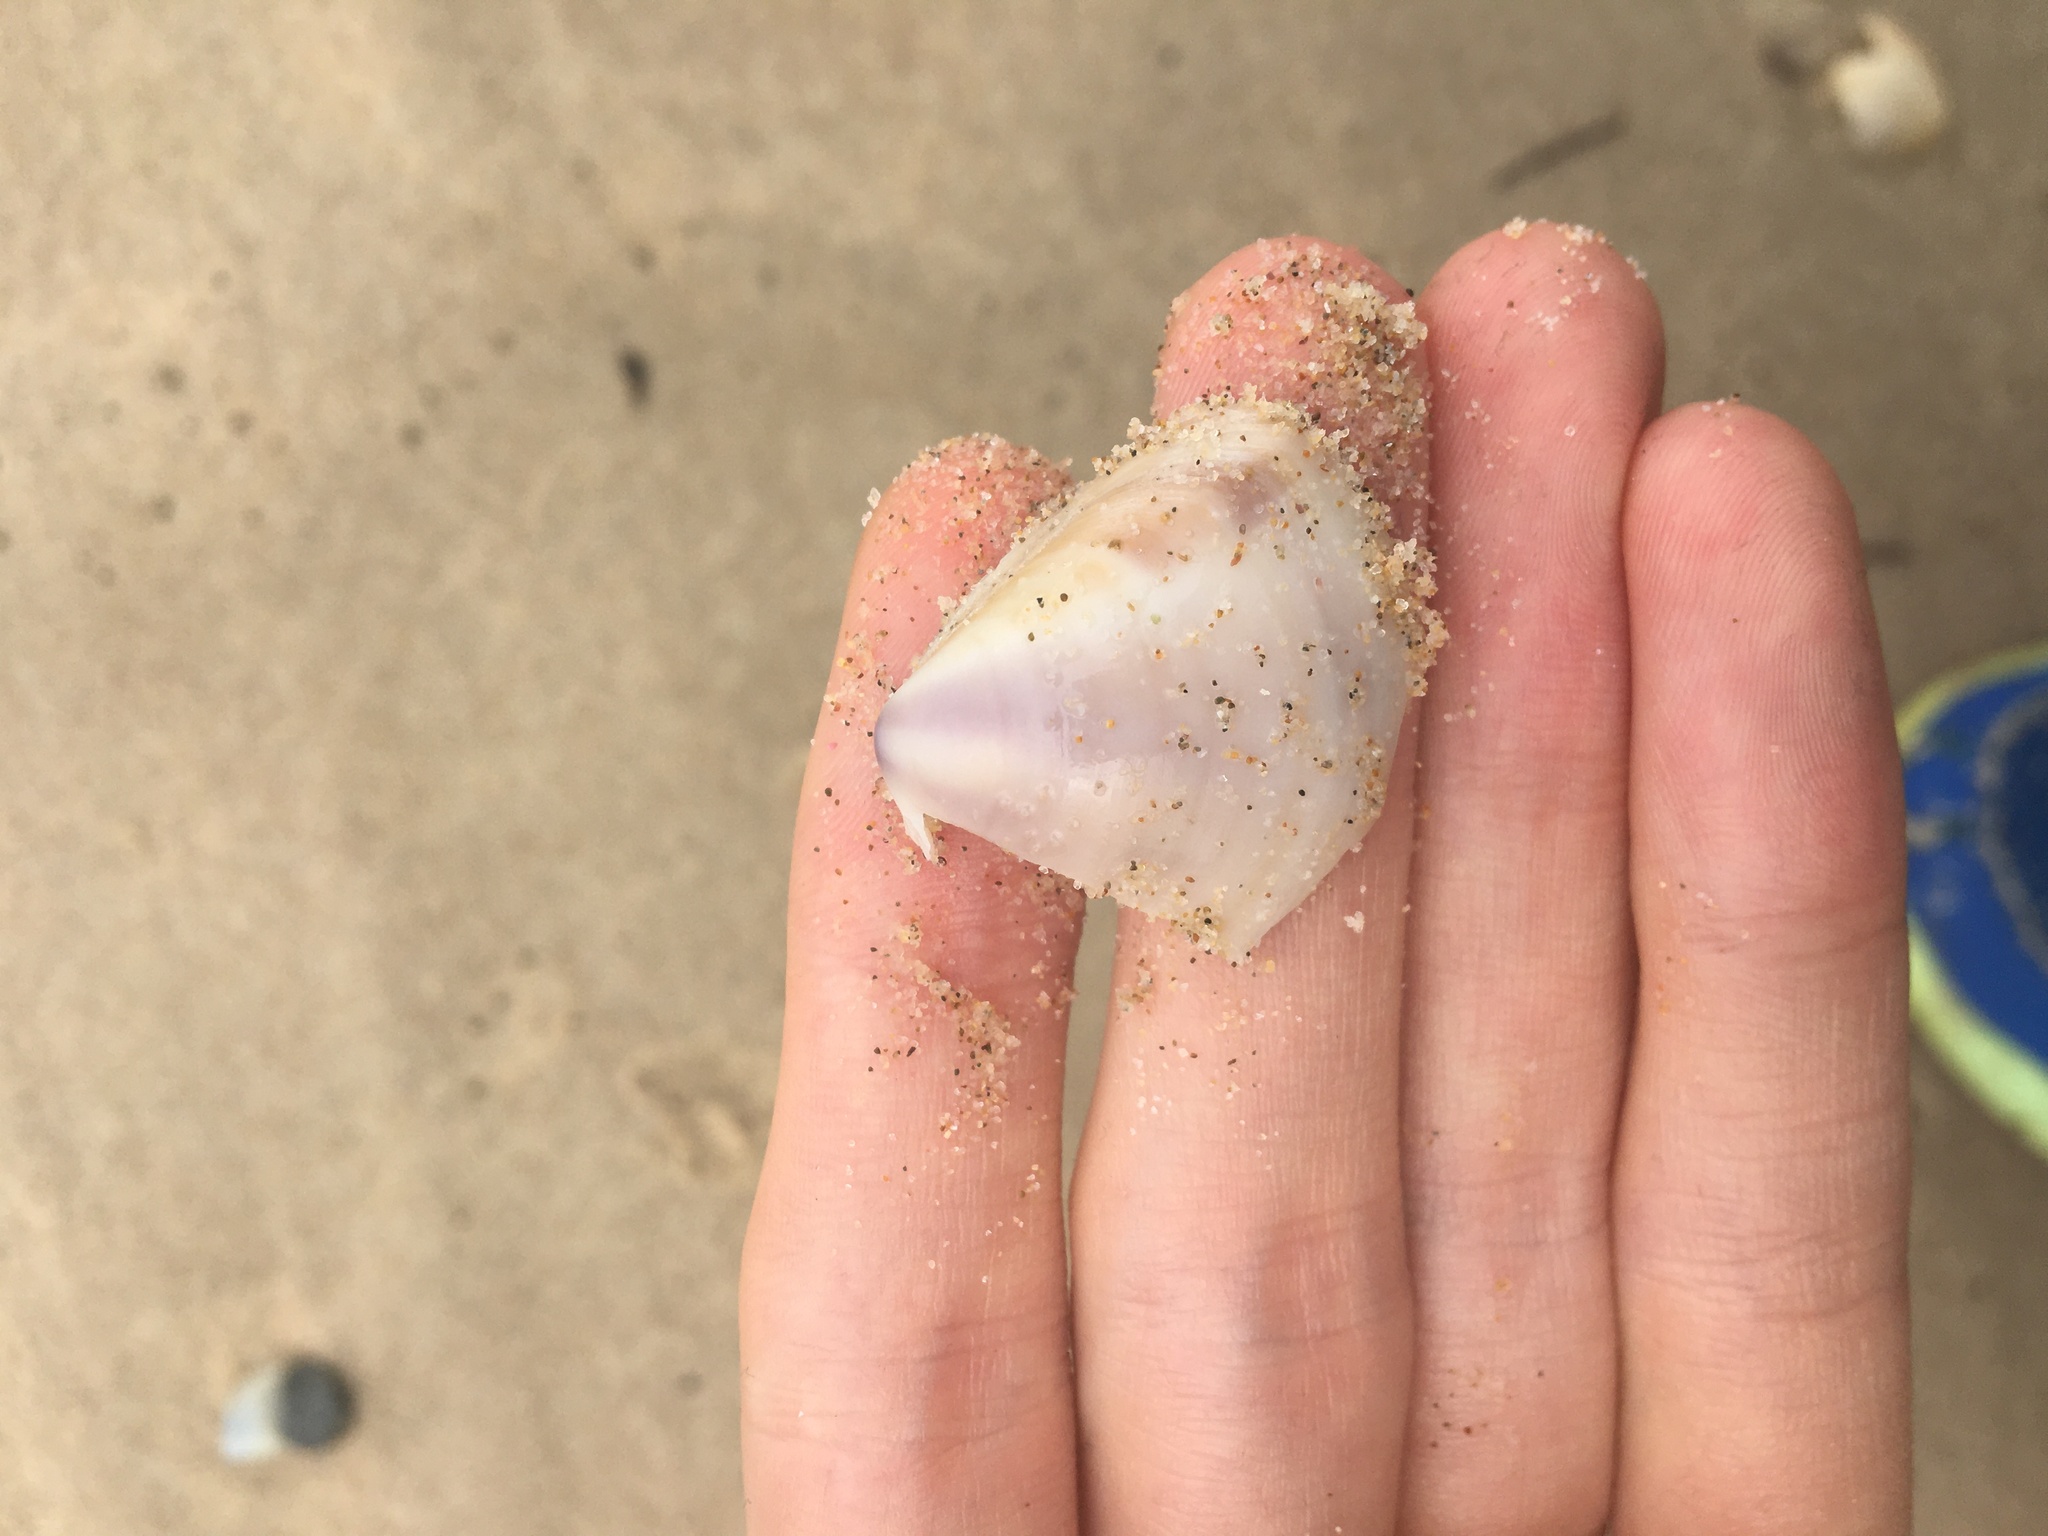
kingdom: Animalia
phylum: Mollusca
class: Bivalvia
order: Venerida
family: Mactridae
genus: Austromactra
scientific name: Austromactra contraria
